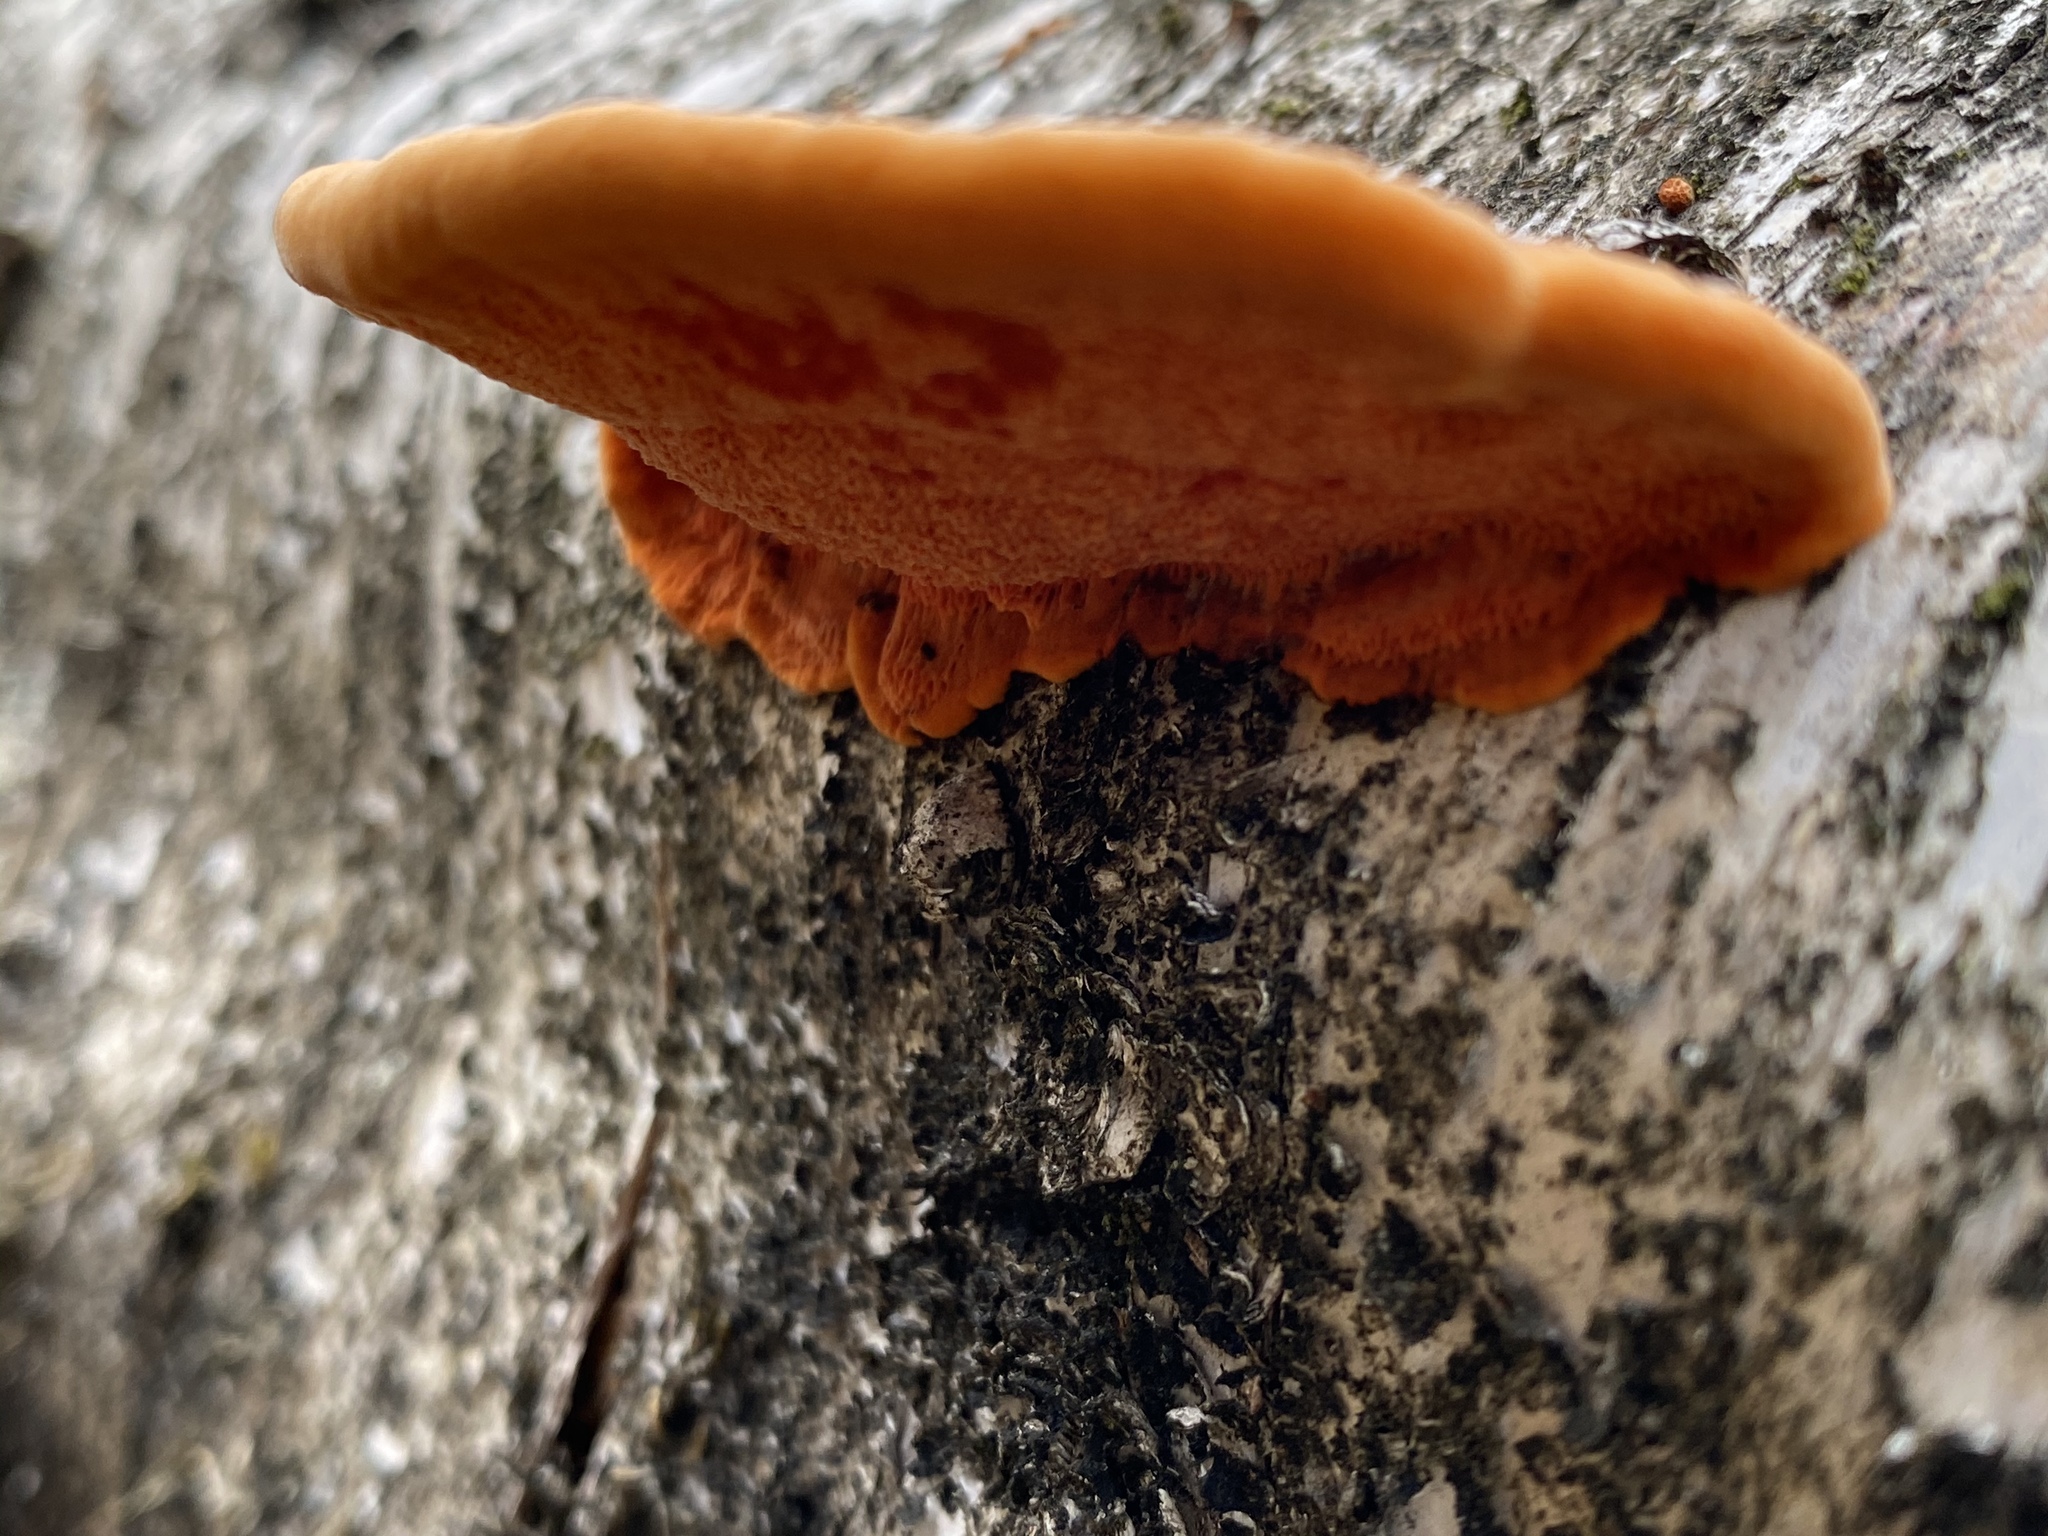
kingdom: Fungi
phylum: Basidiomycota
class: Agaricomycetes
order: Polyporales
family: Polyporaceae
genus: Trametes
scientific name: Trametes cinnabarina
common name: Northern cinnabar polypore
